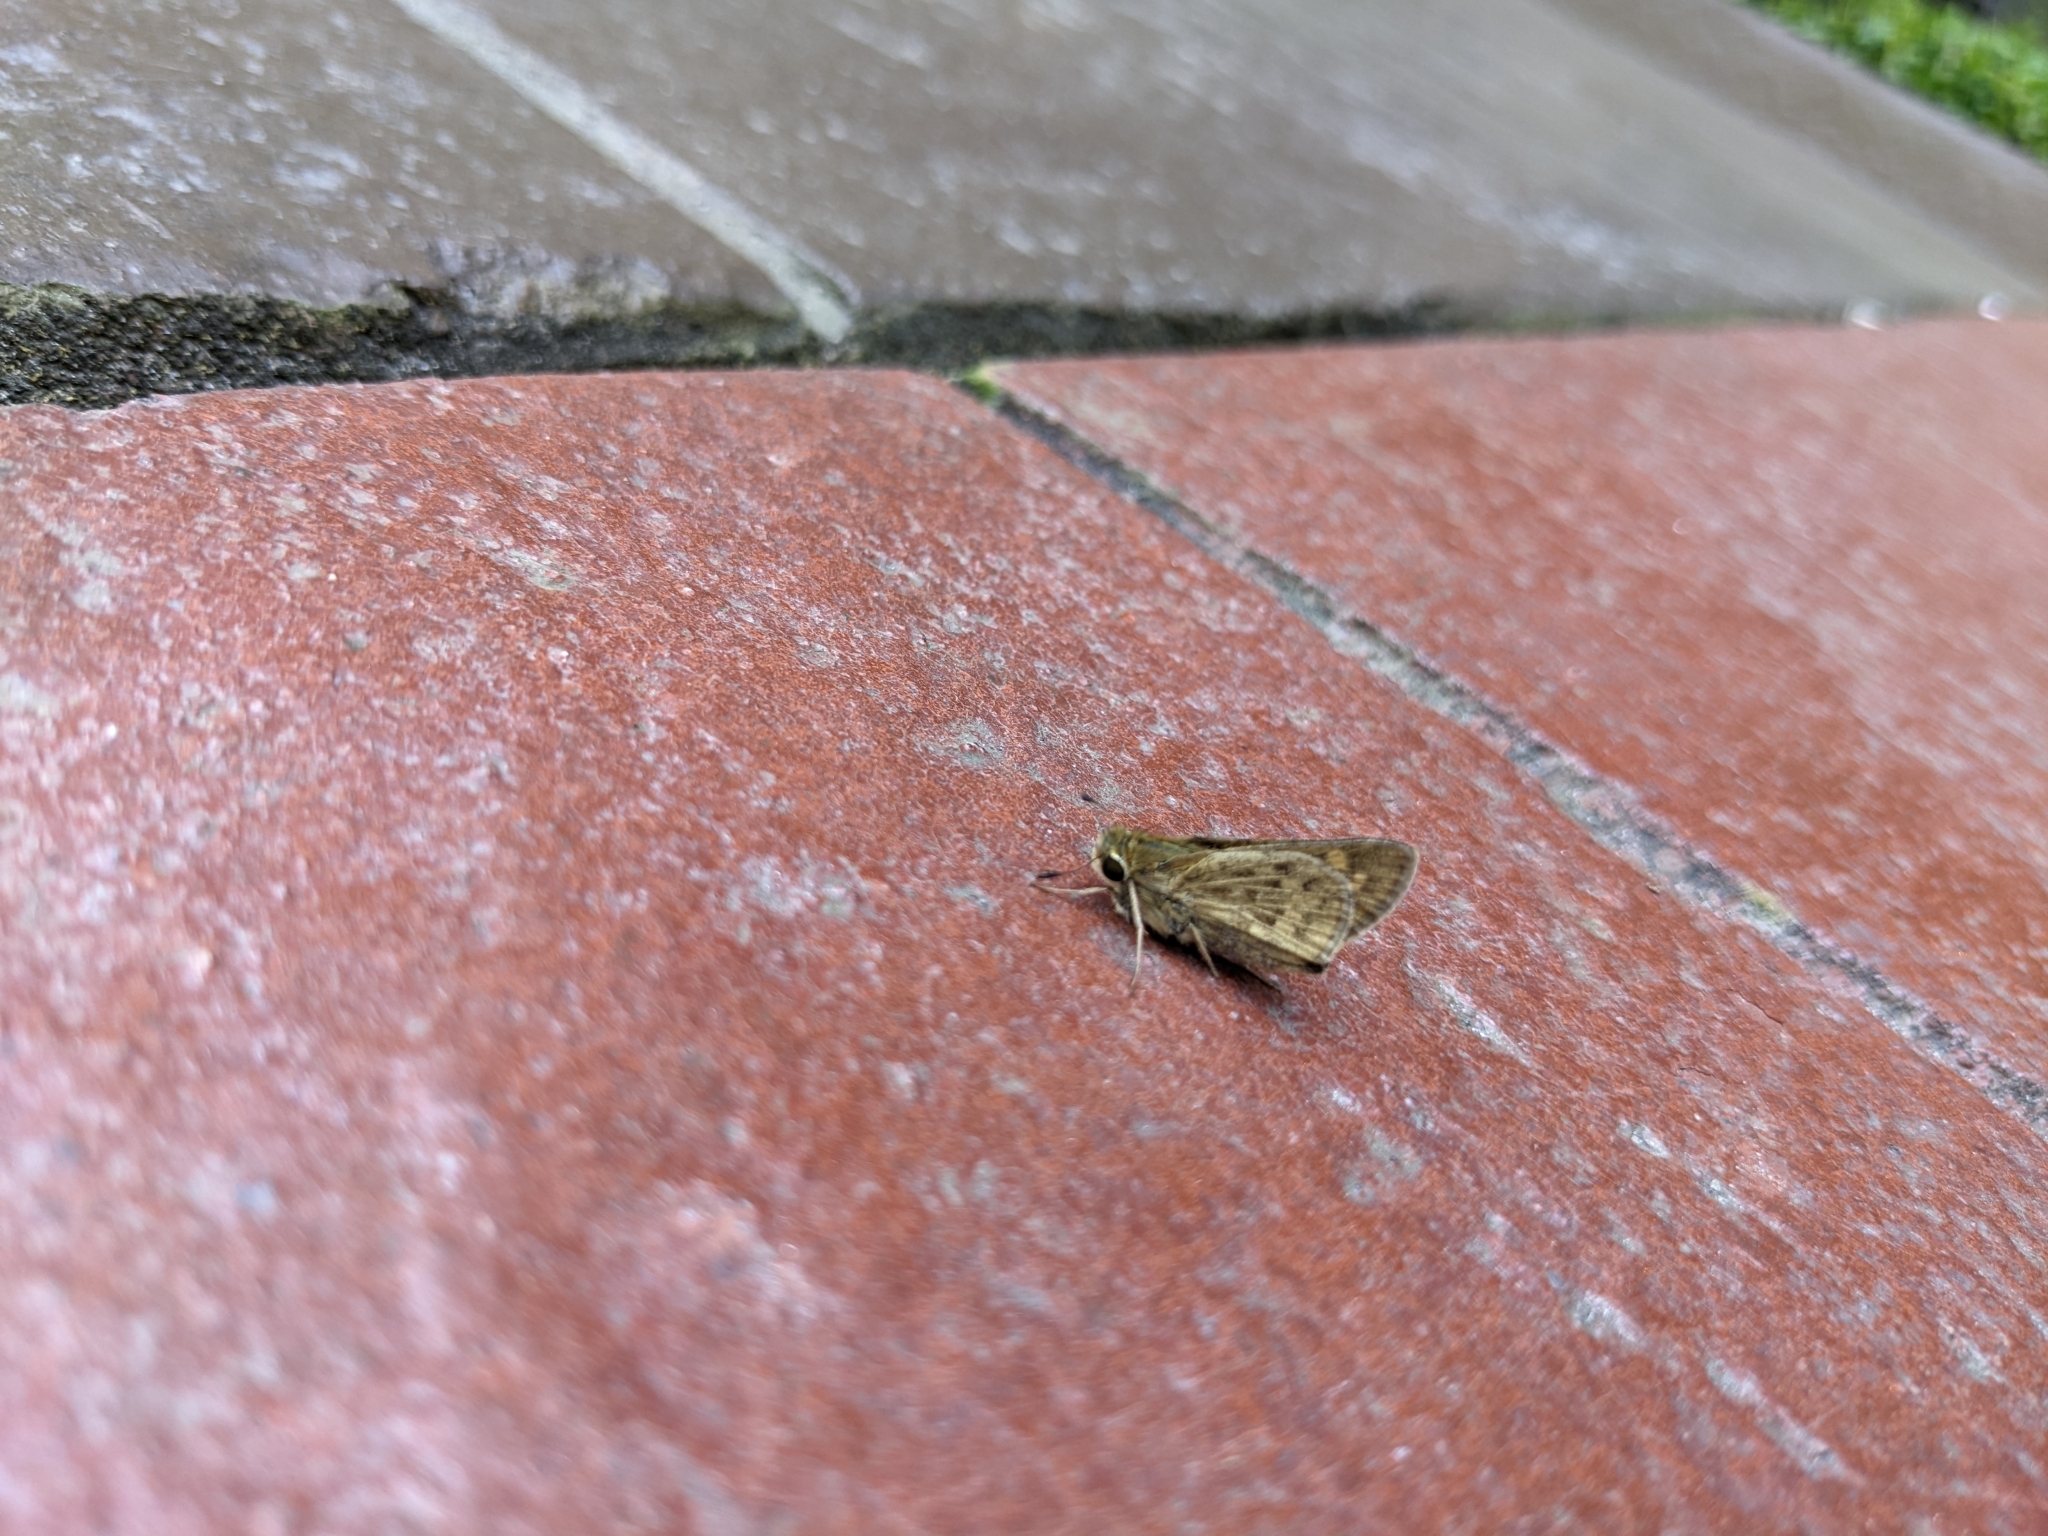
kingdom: Animalia
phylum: Arthropoda
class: Insecta
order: Lepidoptera
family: Hesperiidae
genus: Hylephila
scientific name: Hylephila phyleus
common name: Fiery skipper
